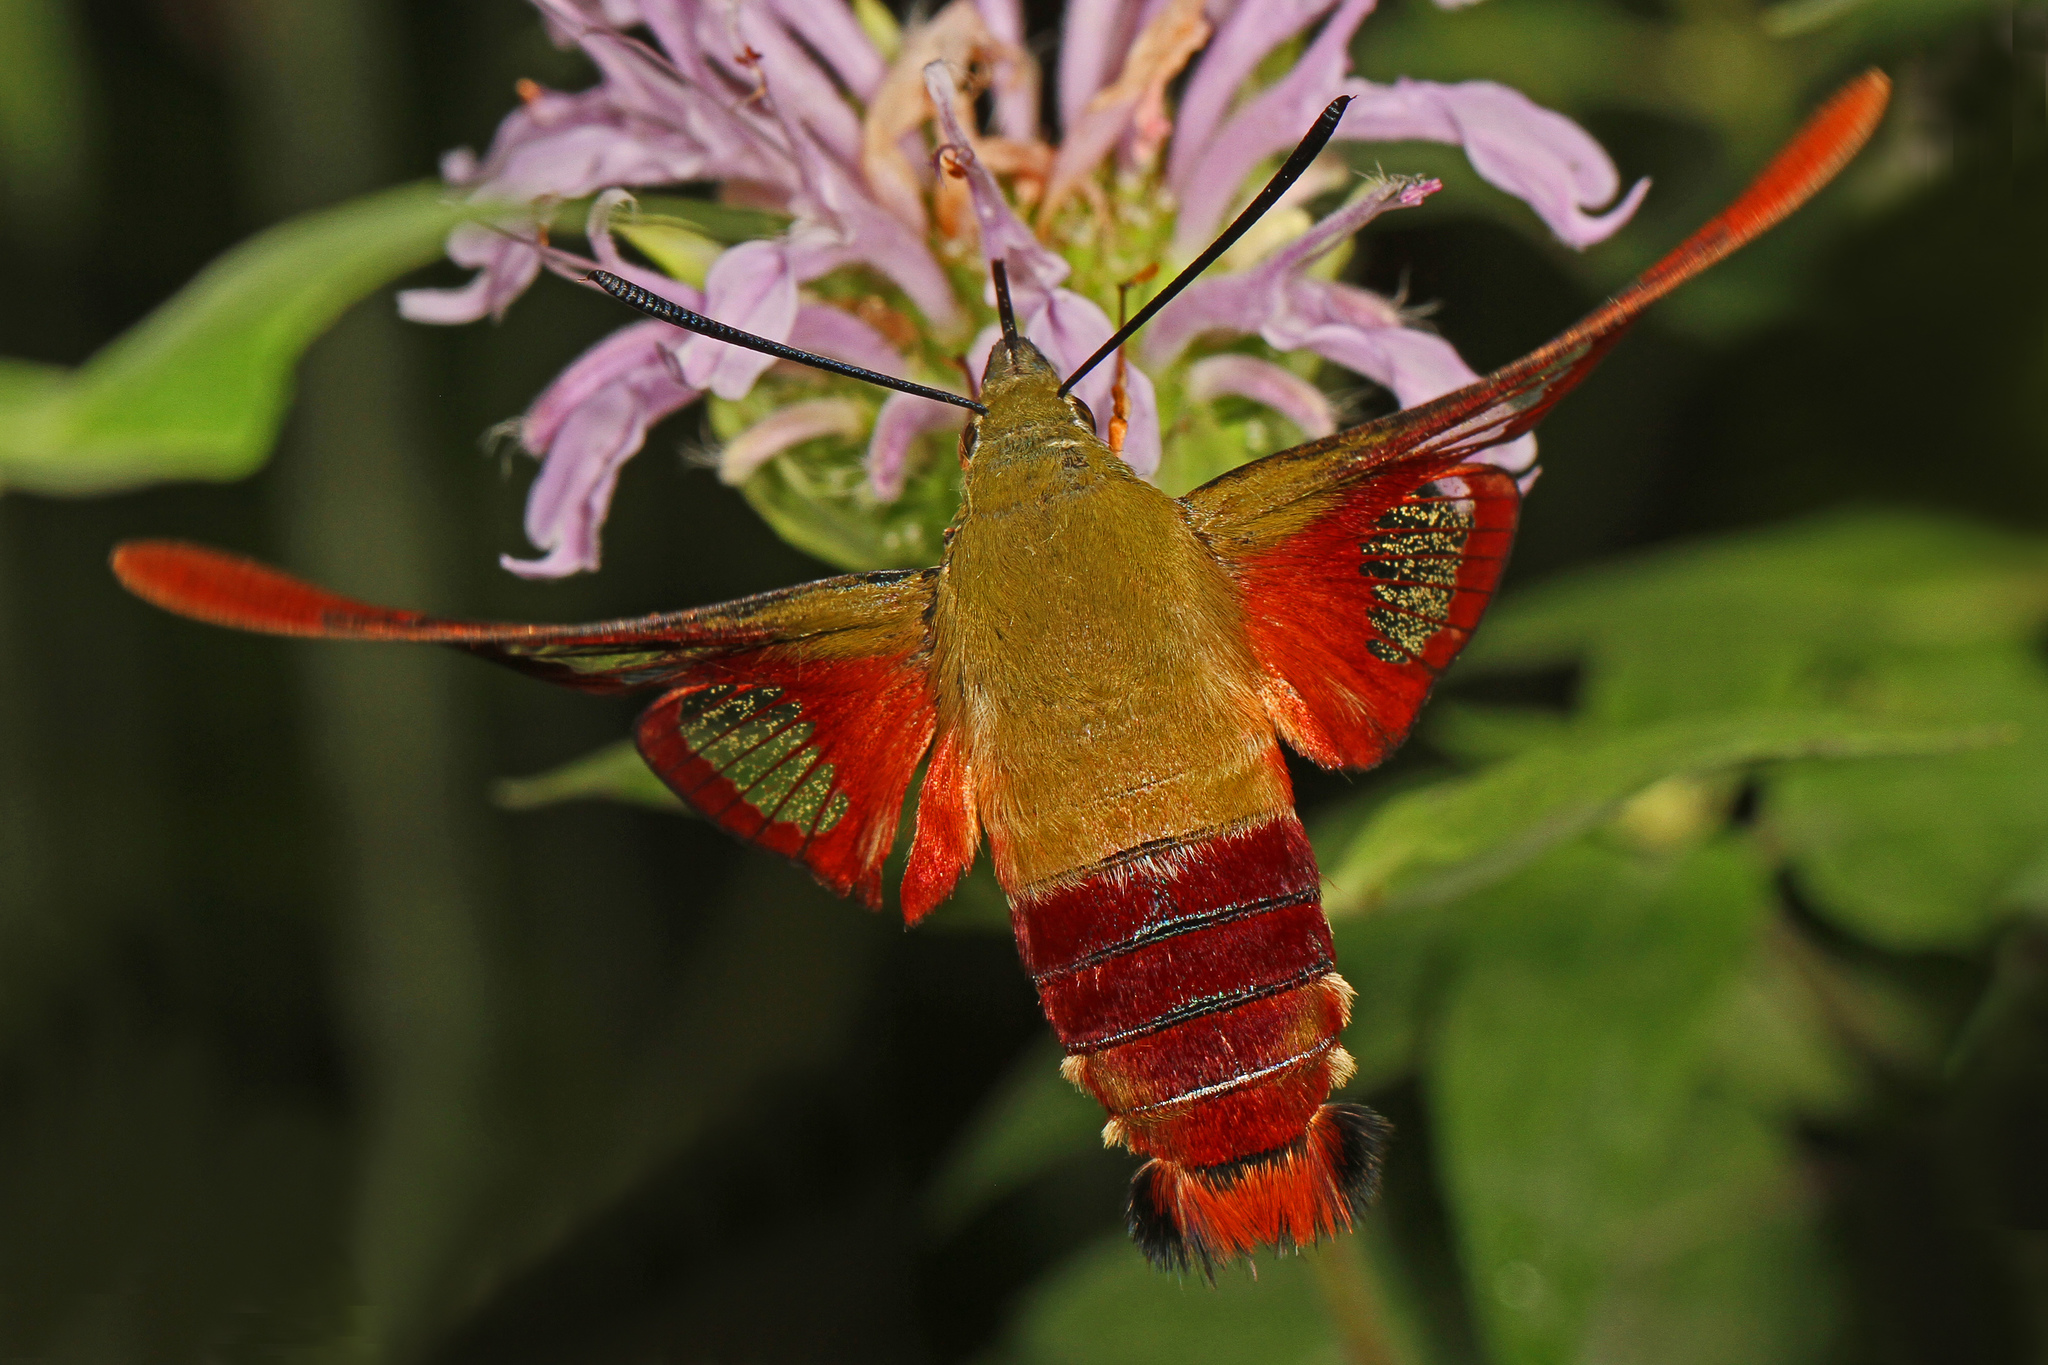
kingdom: Animalia
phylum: Arthropoda
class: Insecta
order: Lepidoptera
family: Sphingidae
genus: Hemaris
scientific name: Hemaris thysbe
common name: Common clear-wing
